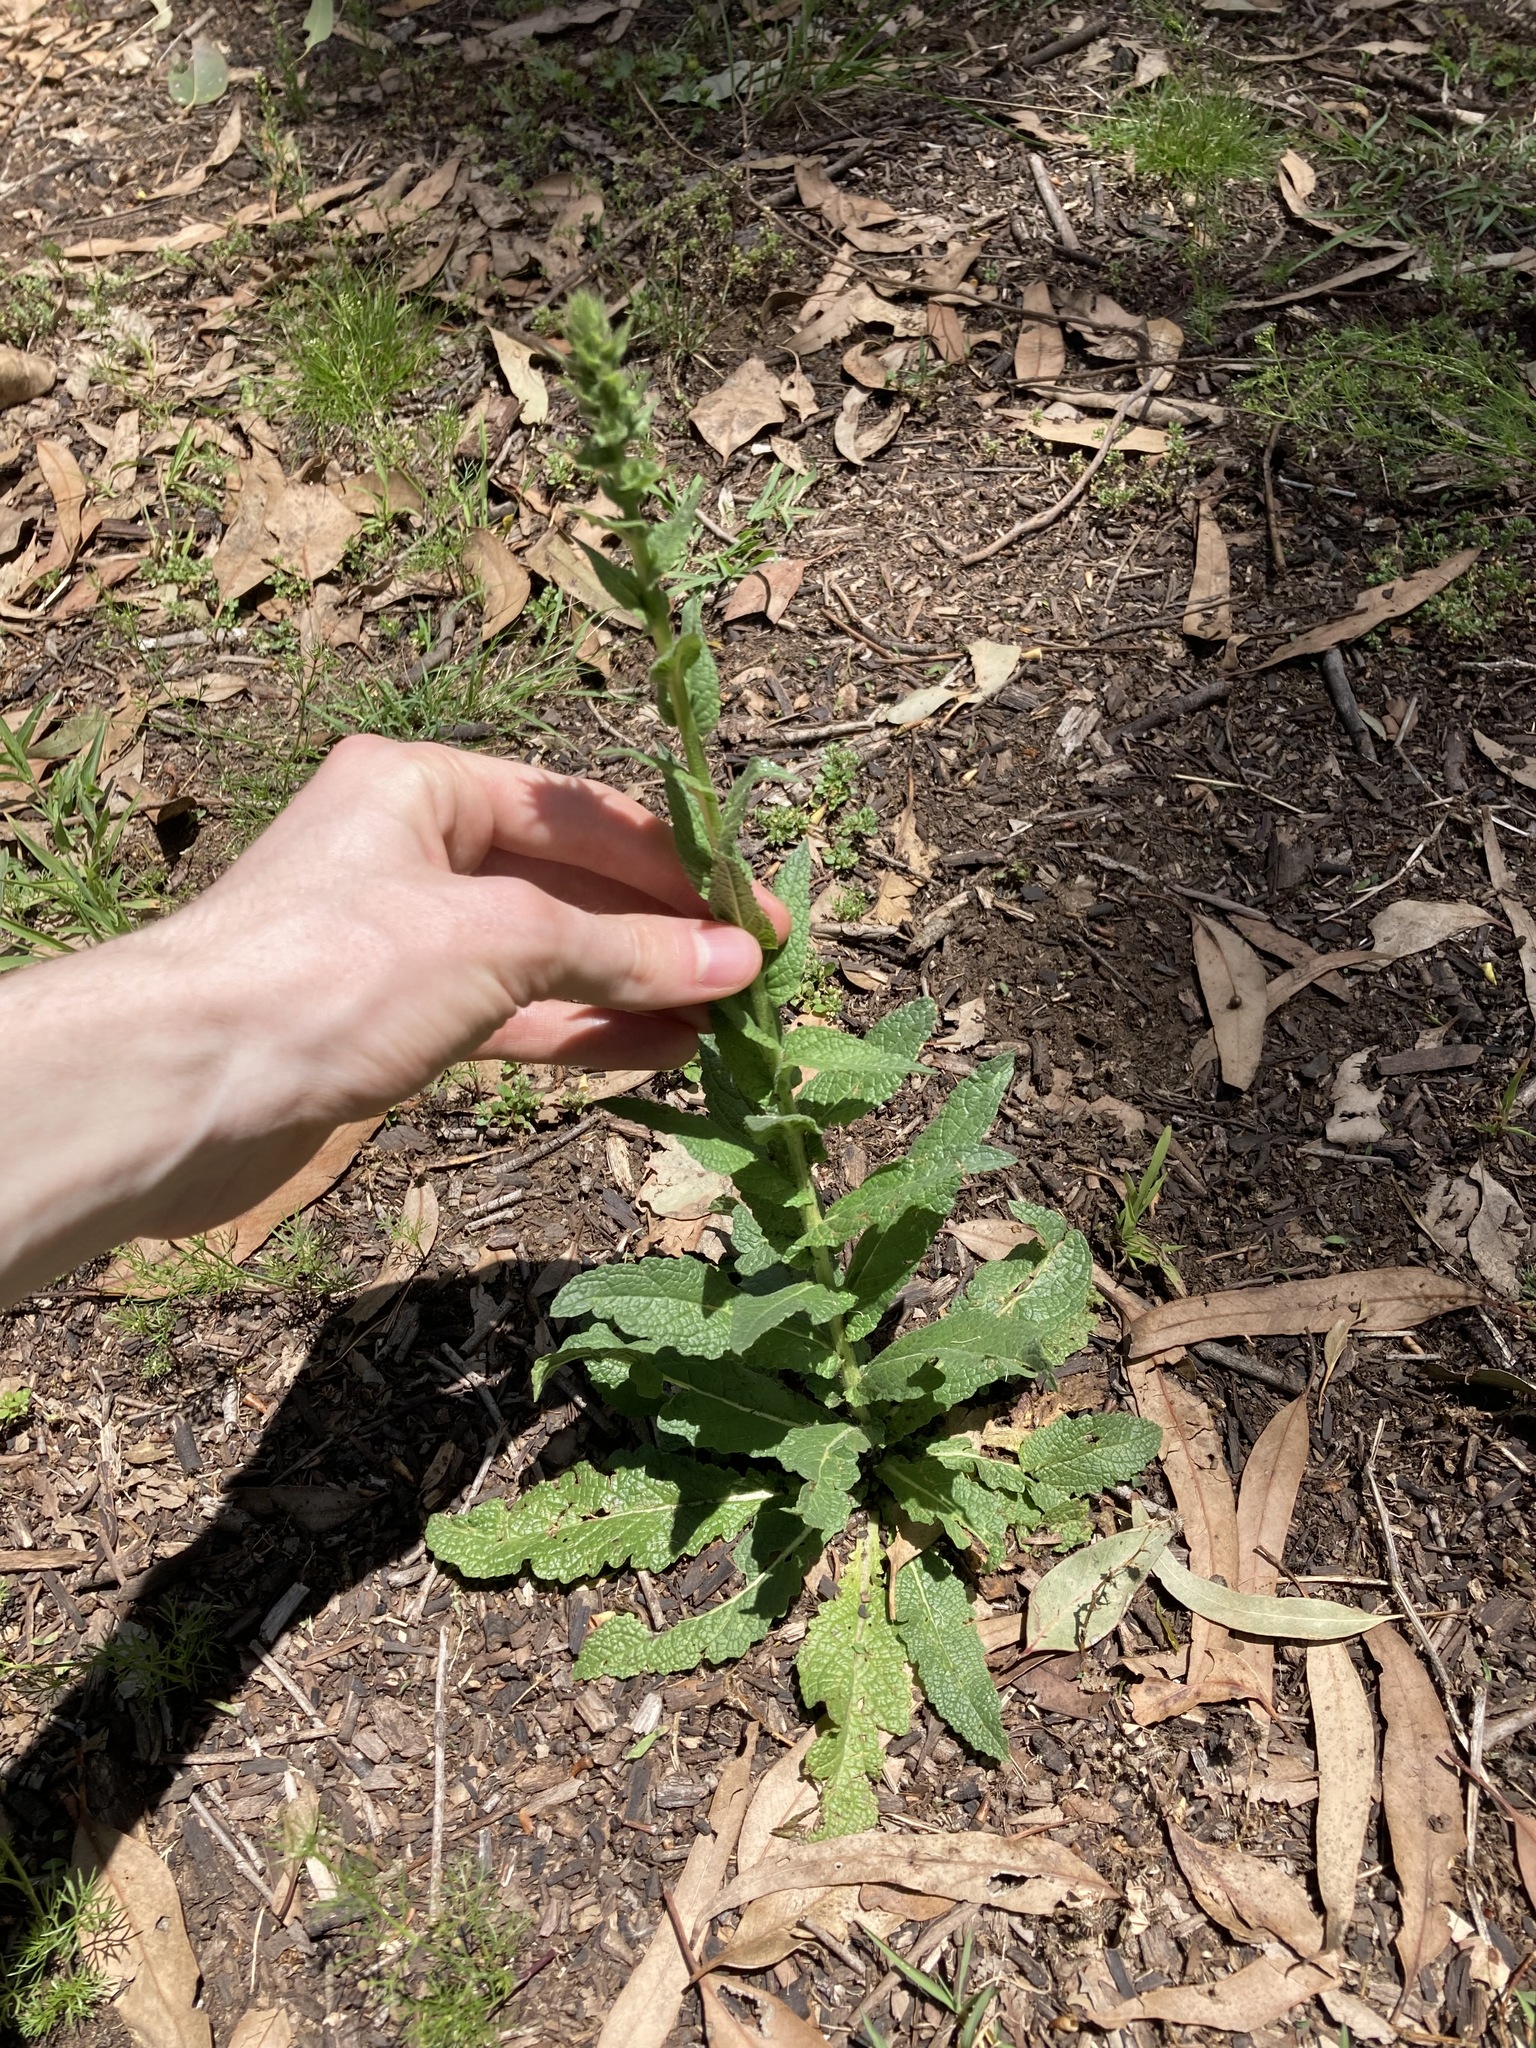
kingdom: Plantae
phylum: Tracheophyta
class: Magnoliopsida
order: Lamiales
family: Scrophulariaceae
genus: Verbascum
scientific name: Verbascum virgatum
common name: Twiggy mullein
